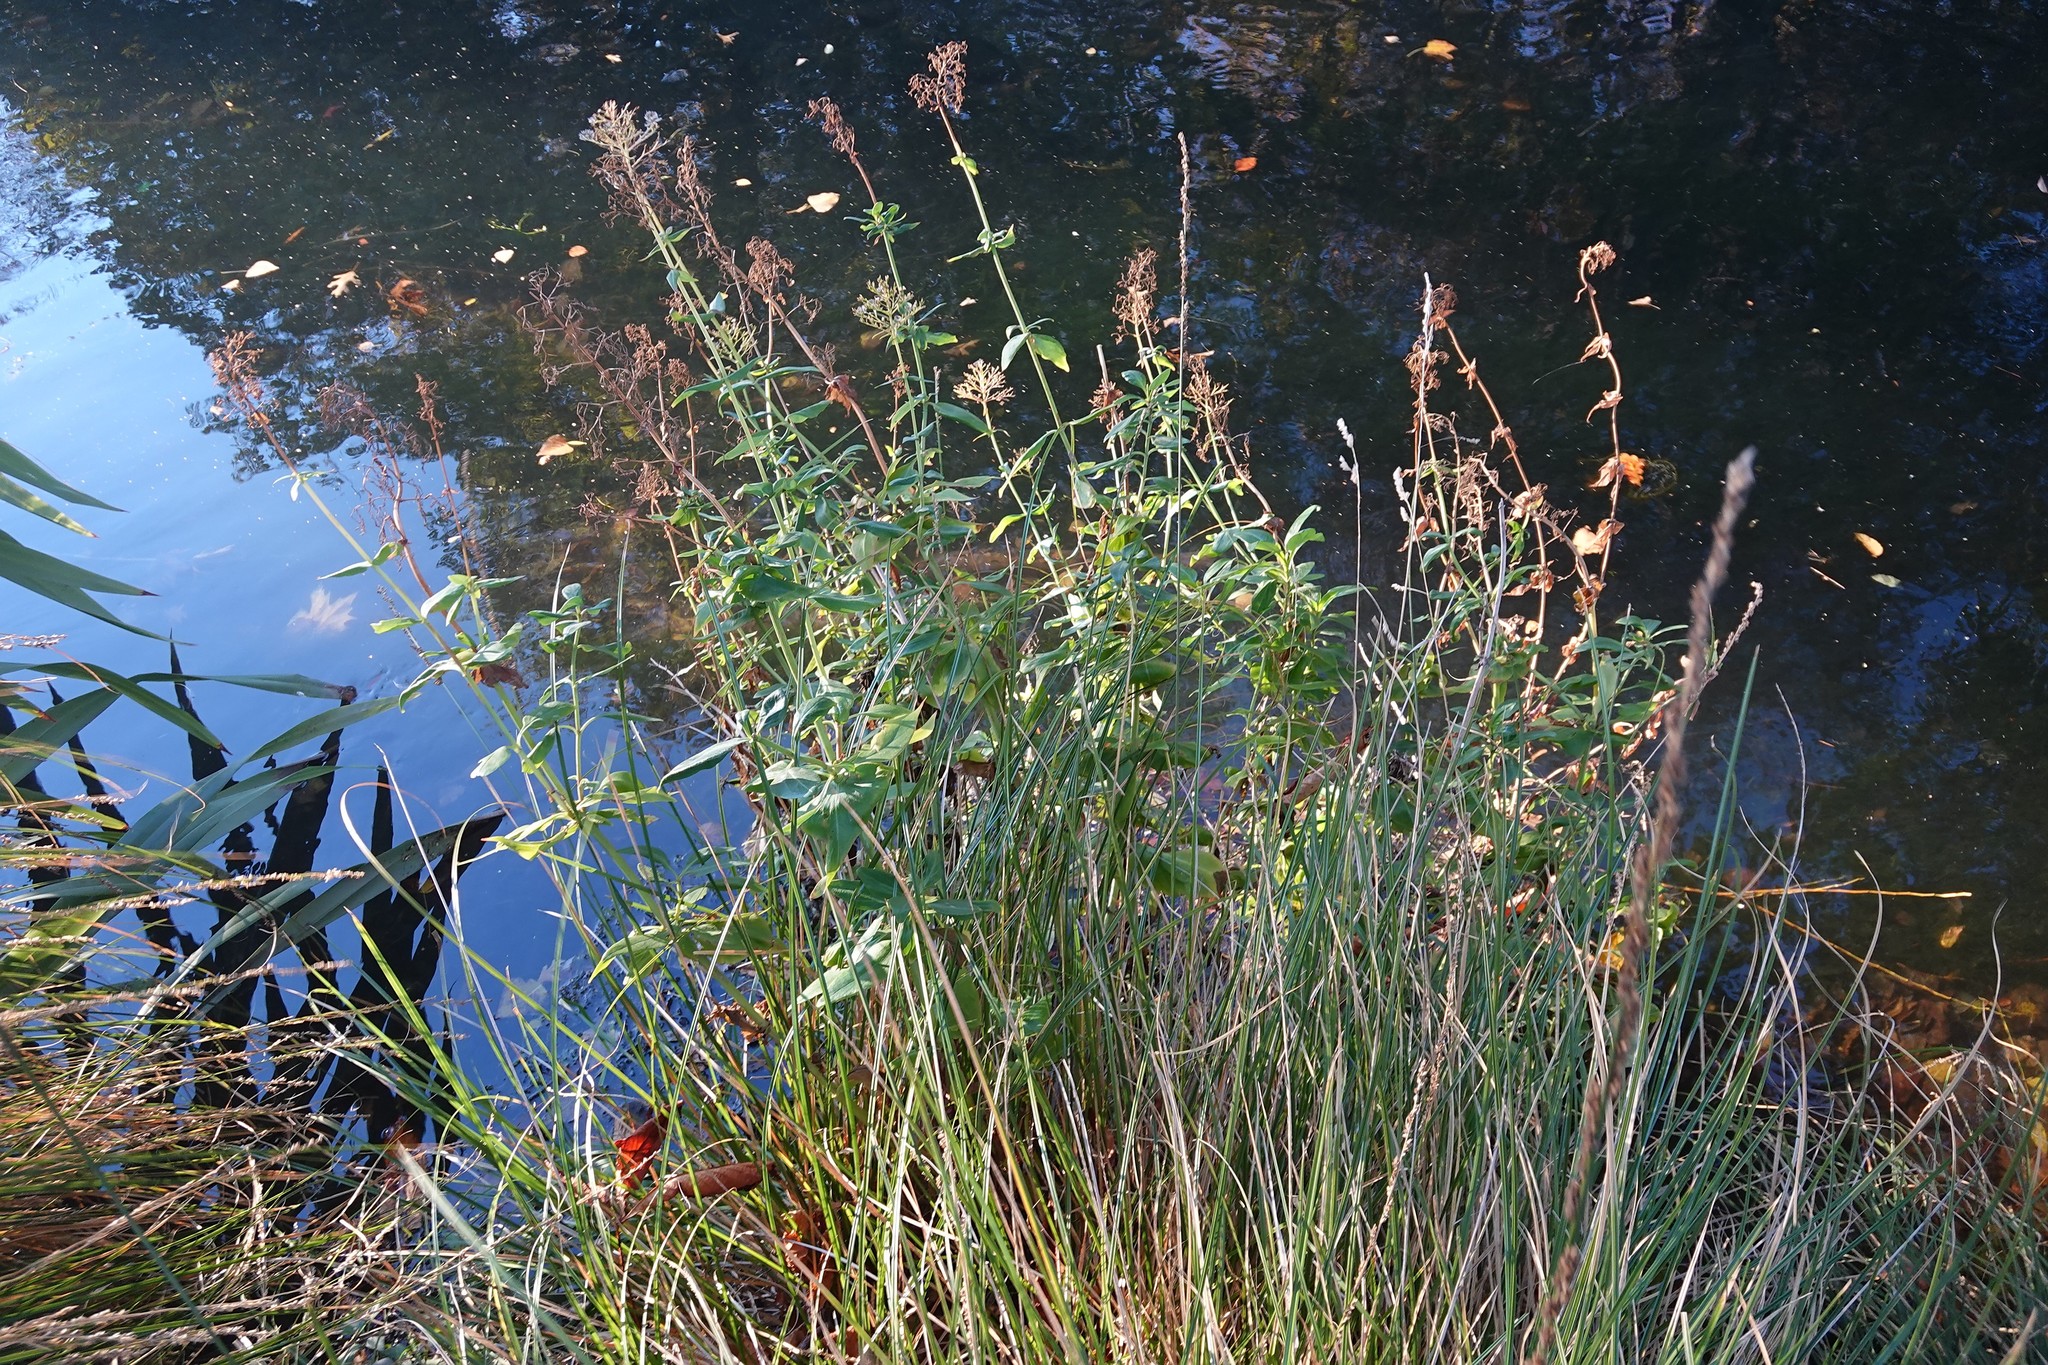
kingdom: Plantae
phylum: Tracheophyta
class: Magnoliopsida
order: Dipsacales
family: Caprifoliaceae
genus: Centranthus
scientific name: Centranthus ruber
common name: Red valerian
